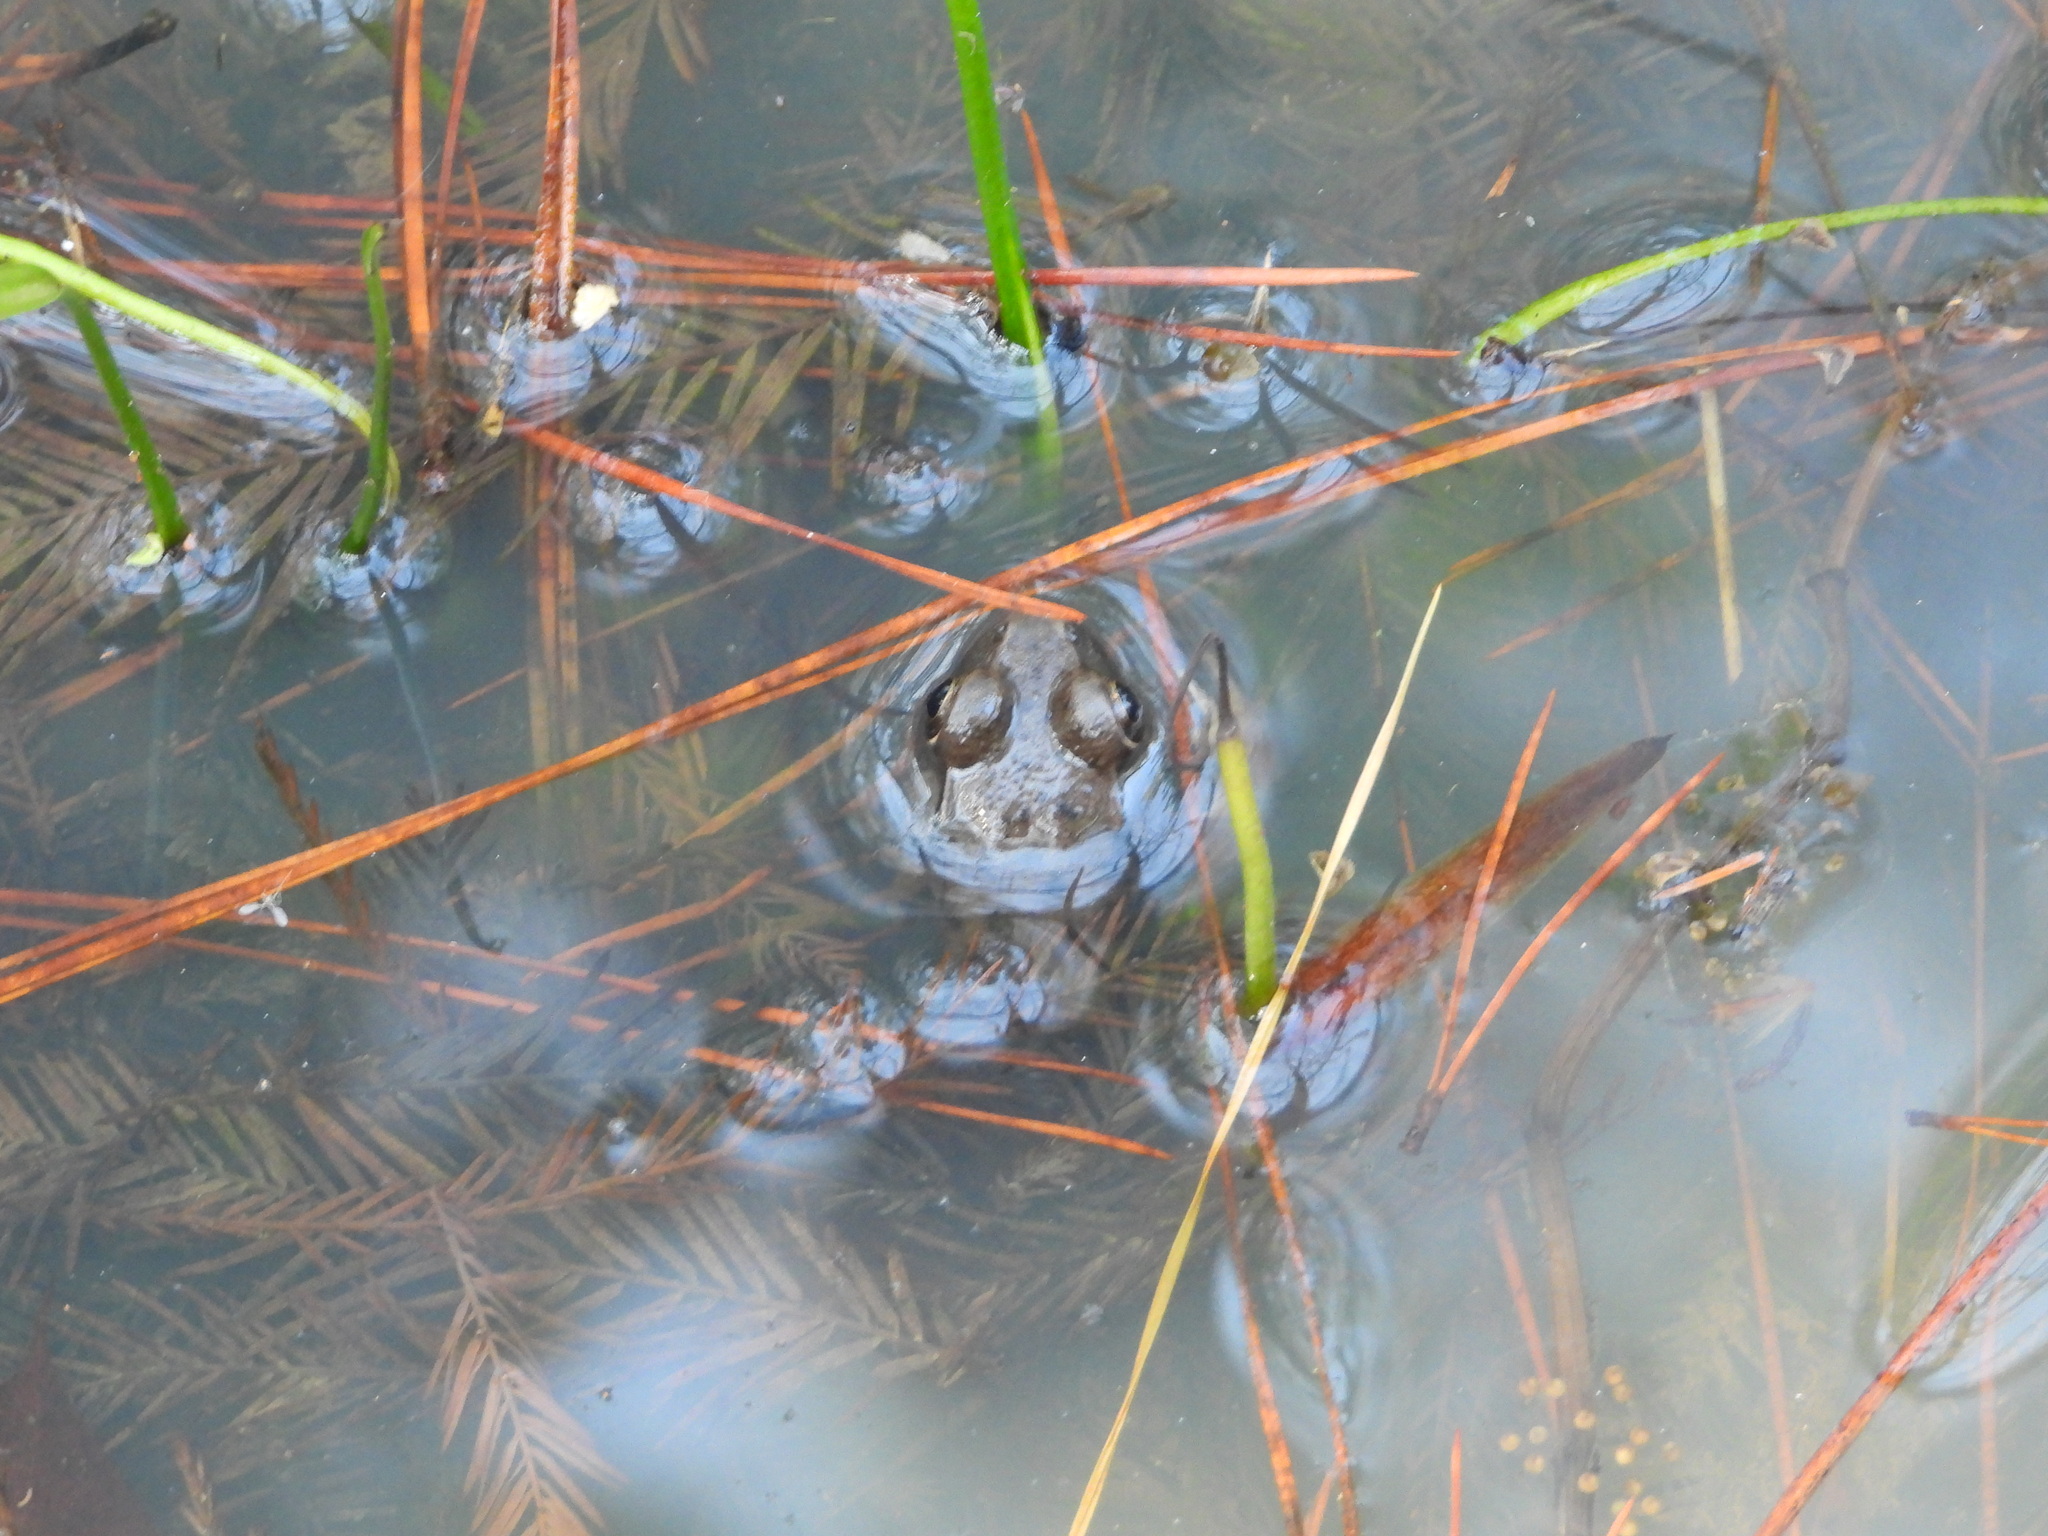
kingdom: Animalia
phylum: Chordata
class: Amphibia
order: Anura
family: Ranidae
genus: Lithobates
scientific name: Lithobates clamitans
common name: Green frog
